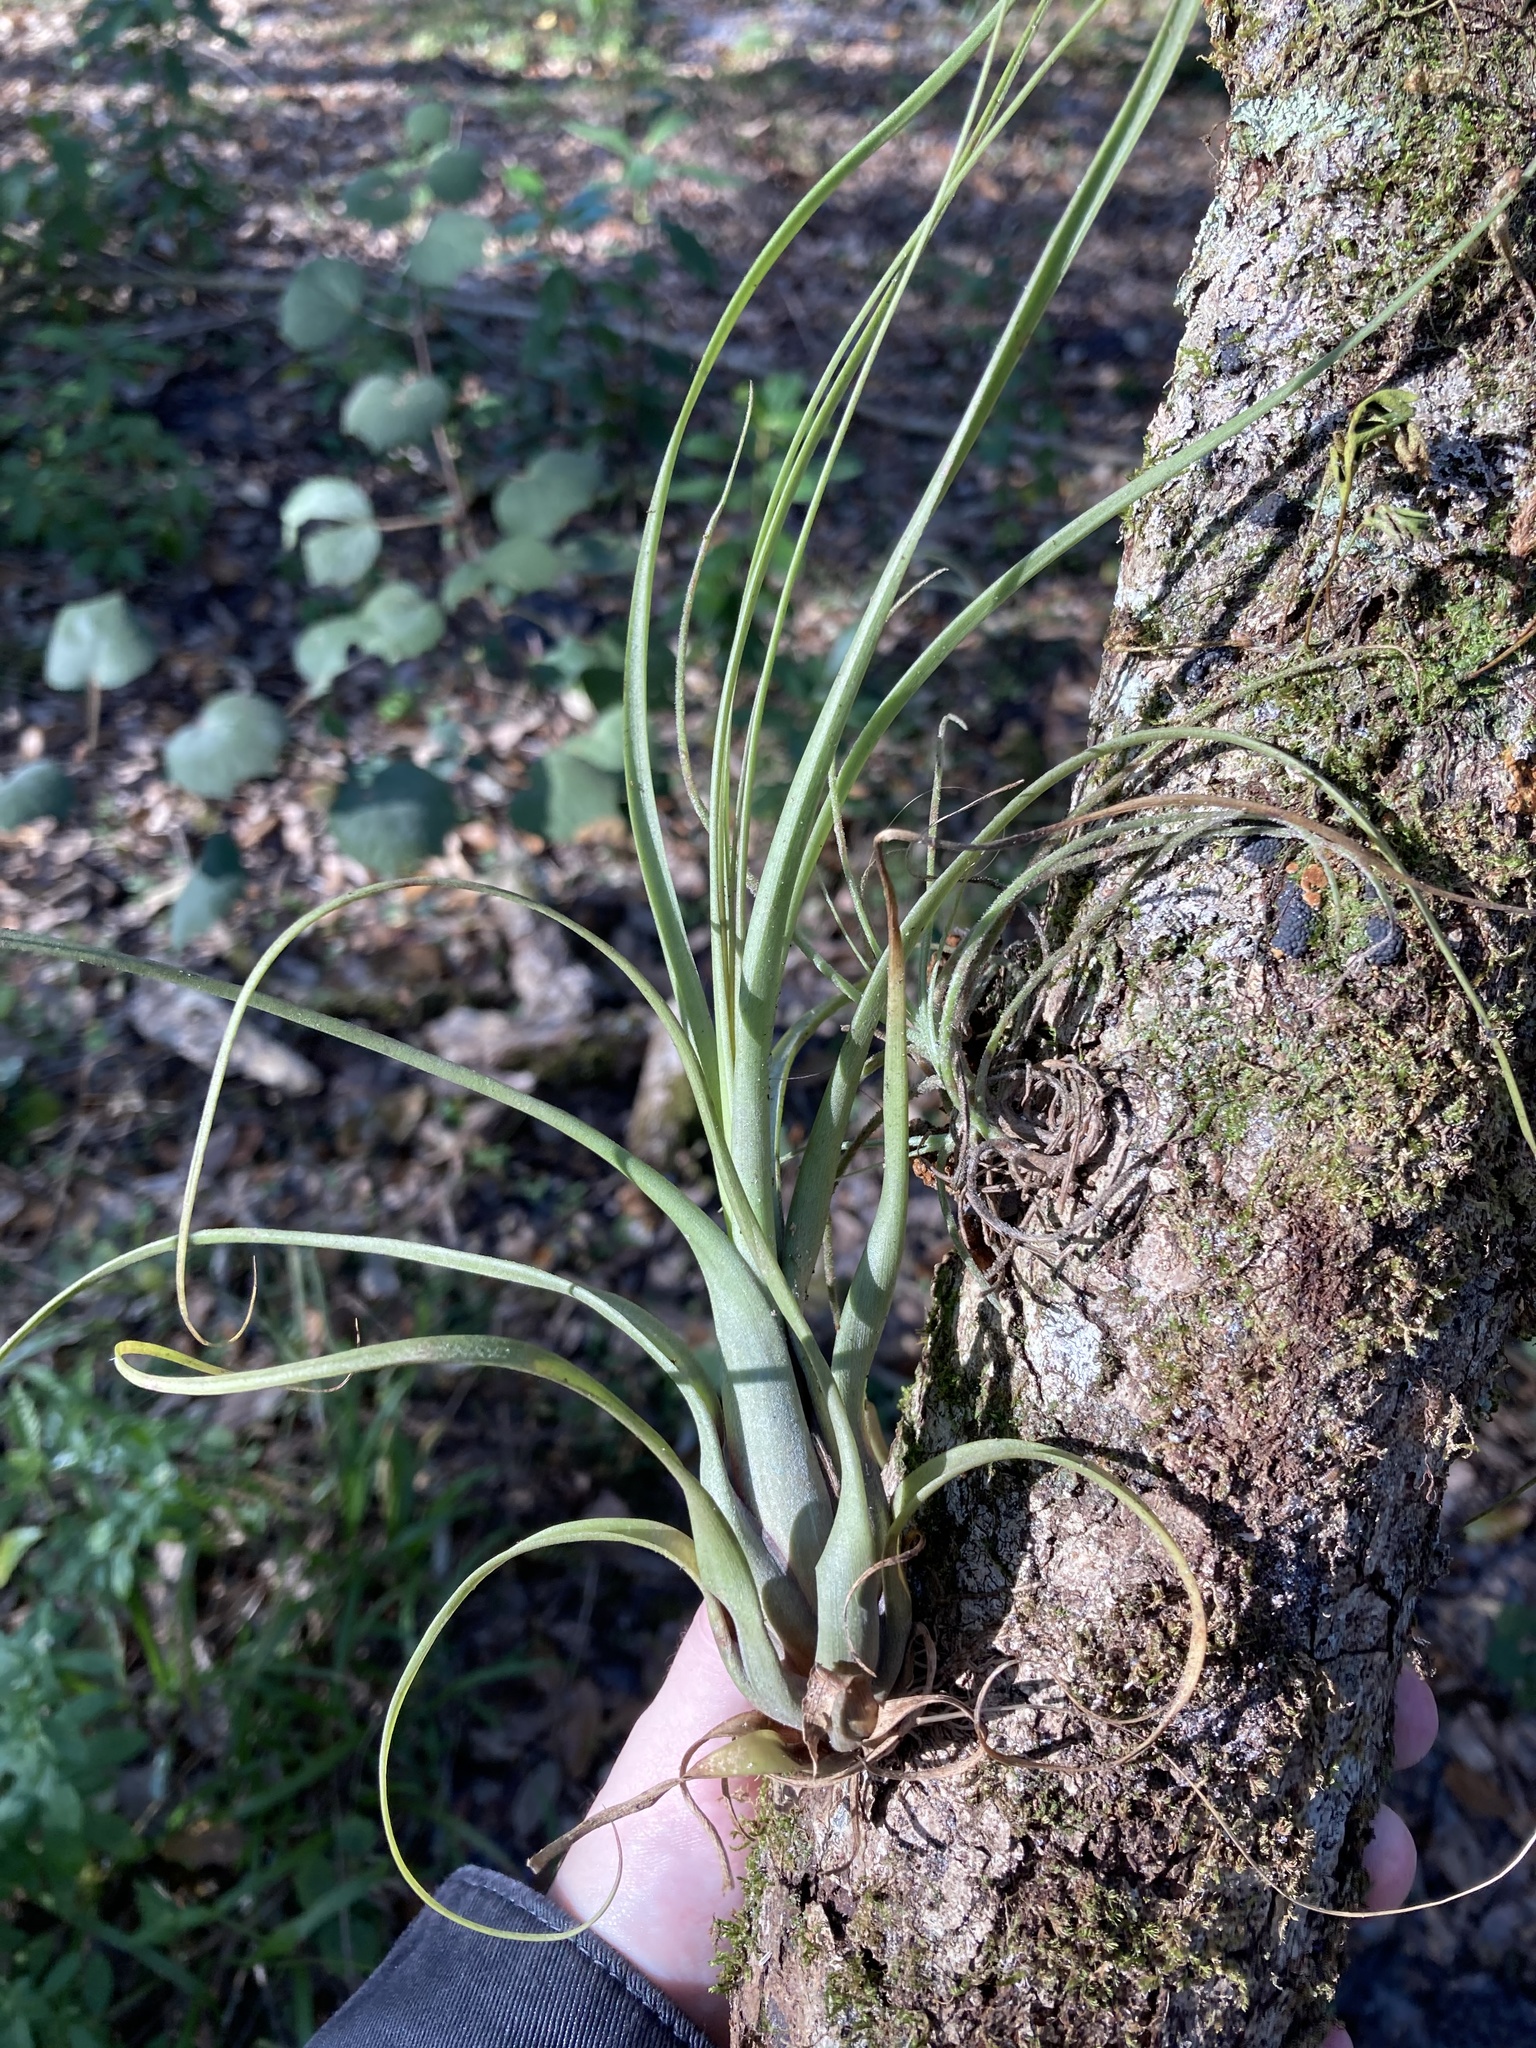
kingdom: Plantae
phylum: Tracheophyta
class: Liliopsida
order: Poales
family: Bromeliaceae
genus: Tillandsia
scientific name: Tillandsia balbisiana
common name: Northern needleleaf
